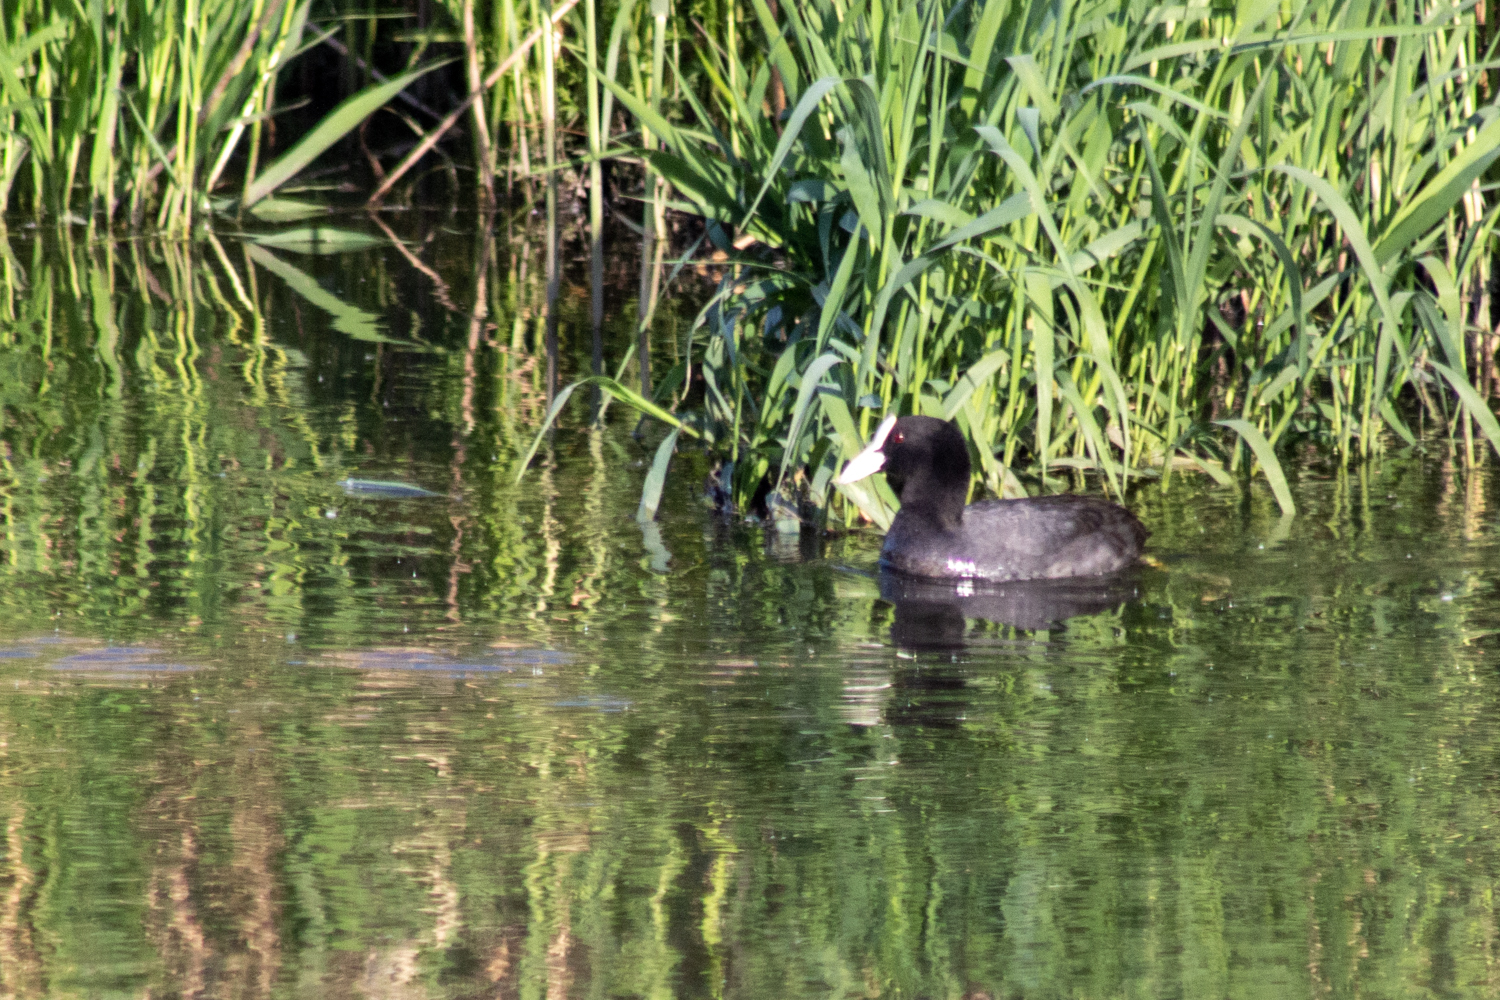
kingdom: Animalia
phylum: Chordata
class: Aves
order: Gruiformes
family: Rallidae
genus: Fulica
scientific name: Fulica atra
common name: Eurasian coot
